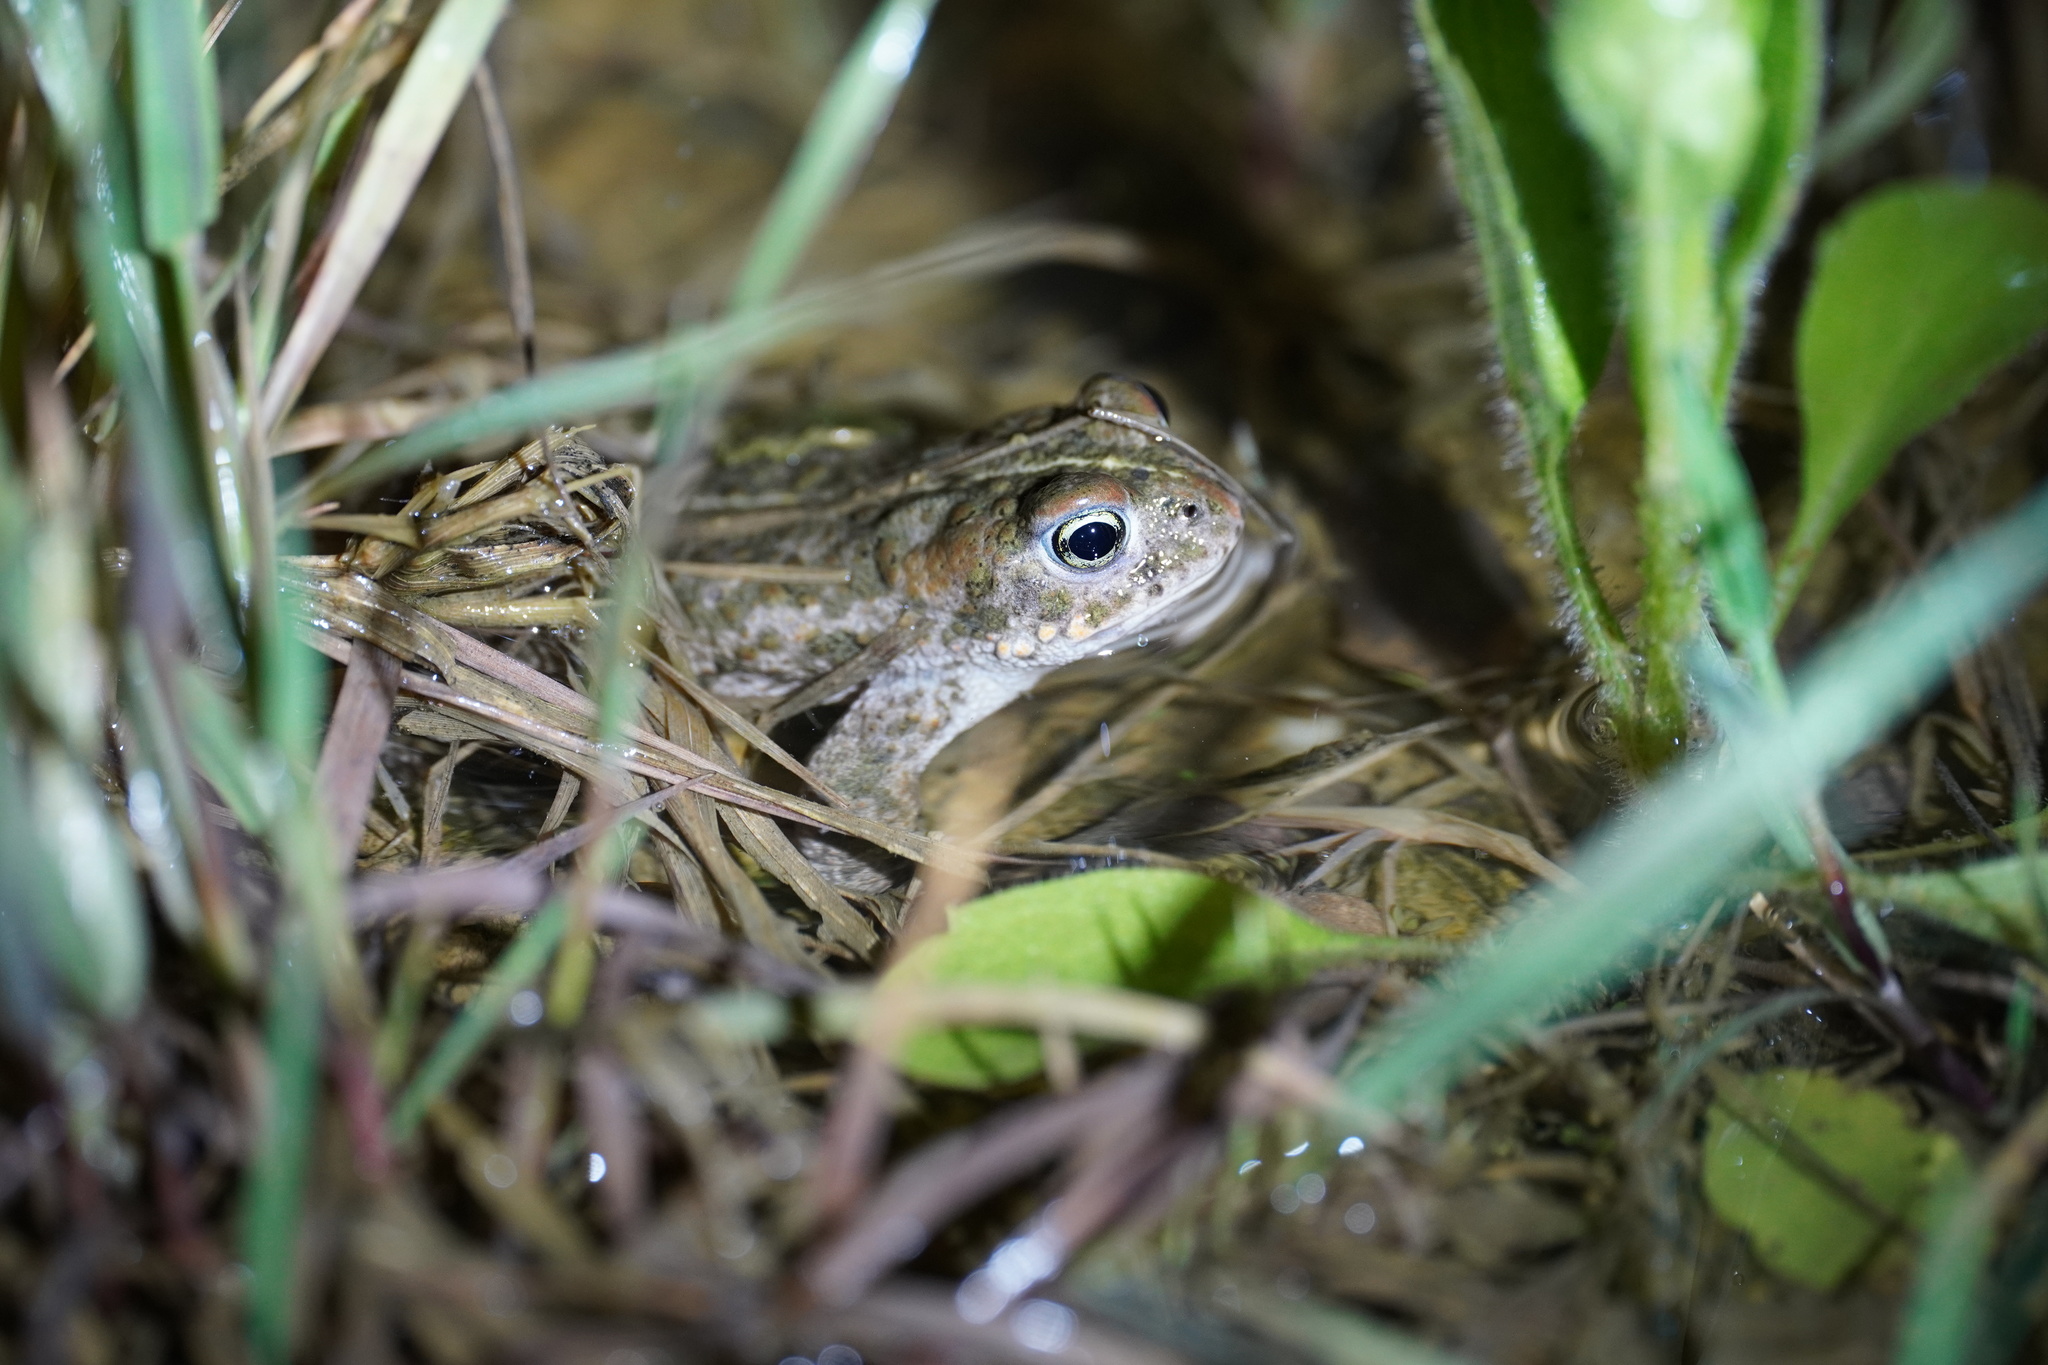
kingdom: Animalia
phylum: Chordata
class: Amphibia
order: Anura
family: Bufonidae
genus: Epidalea
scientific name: Epidalea calamita
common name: Natterjack toad
